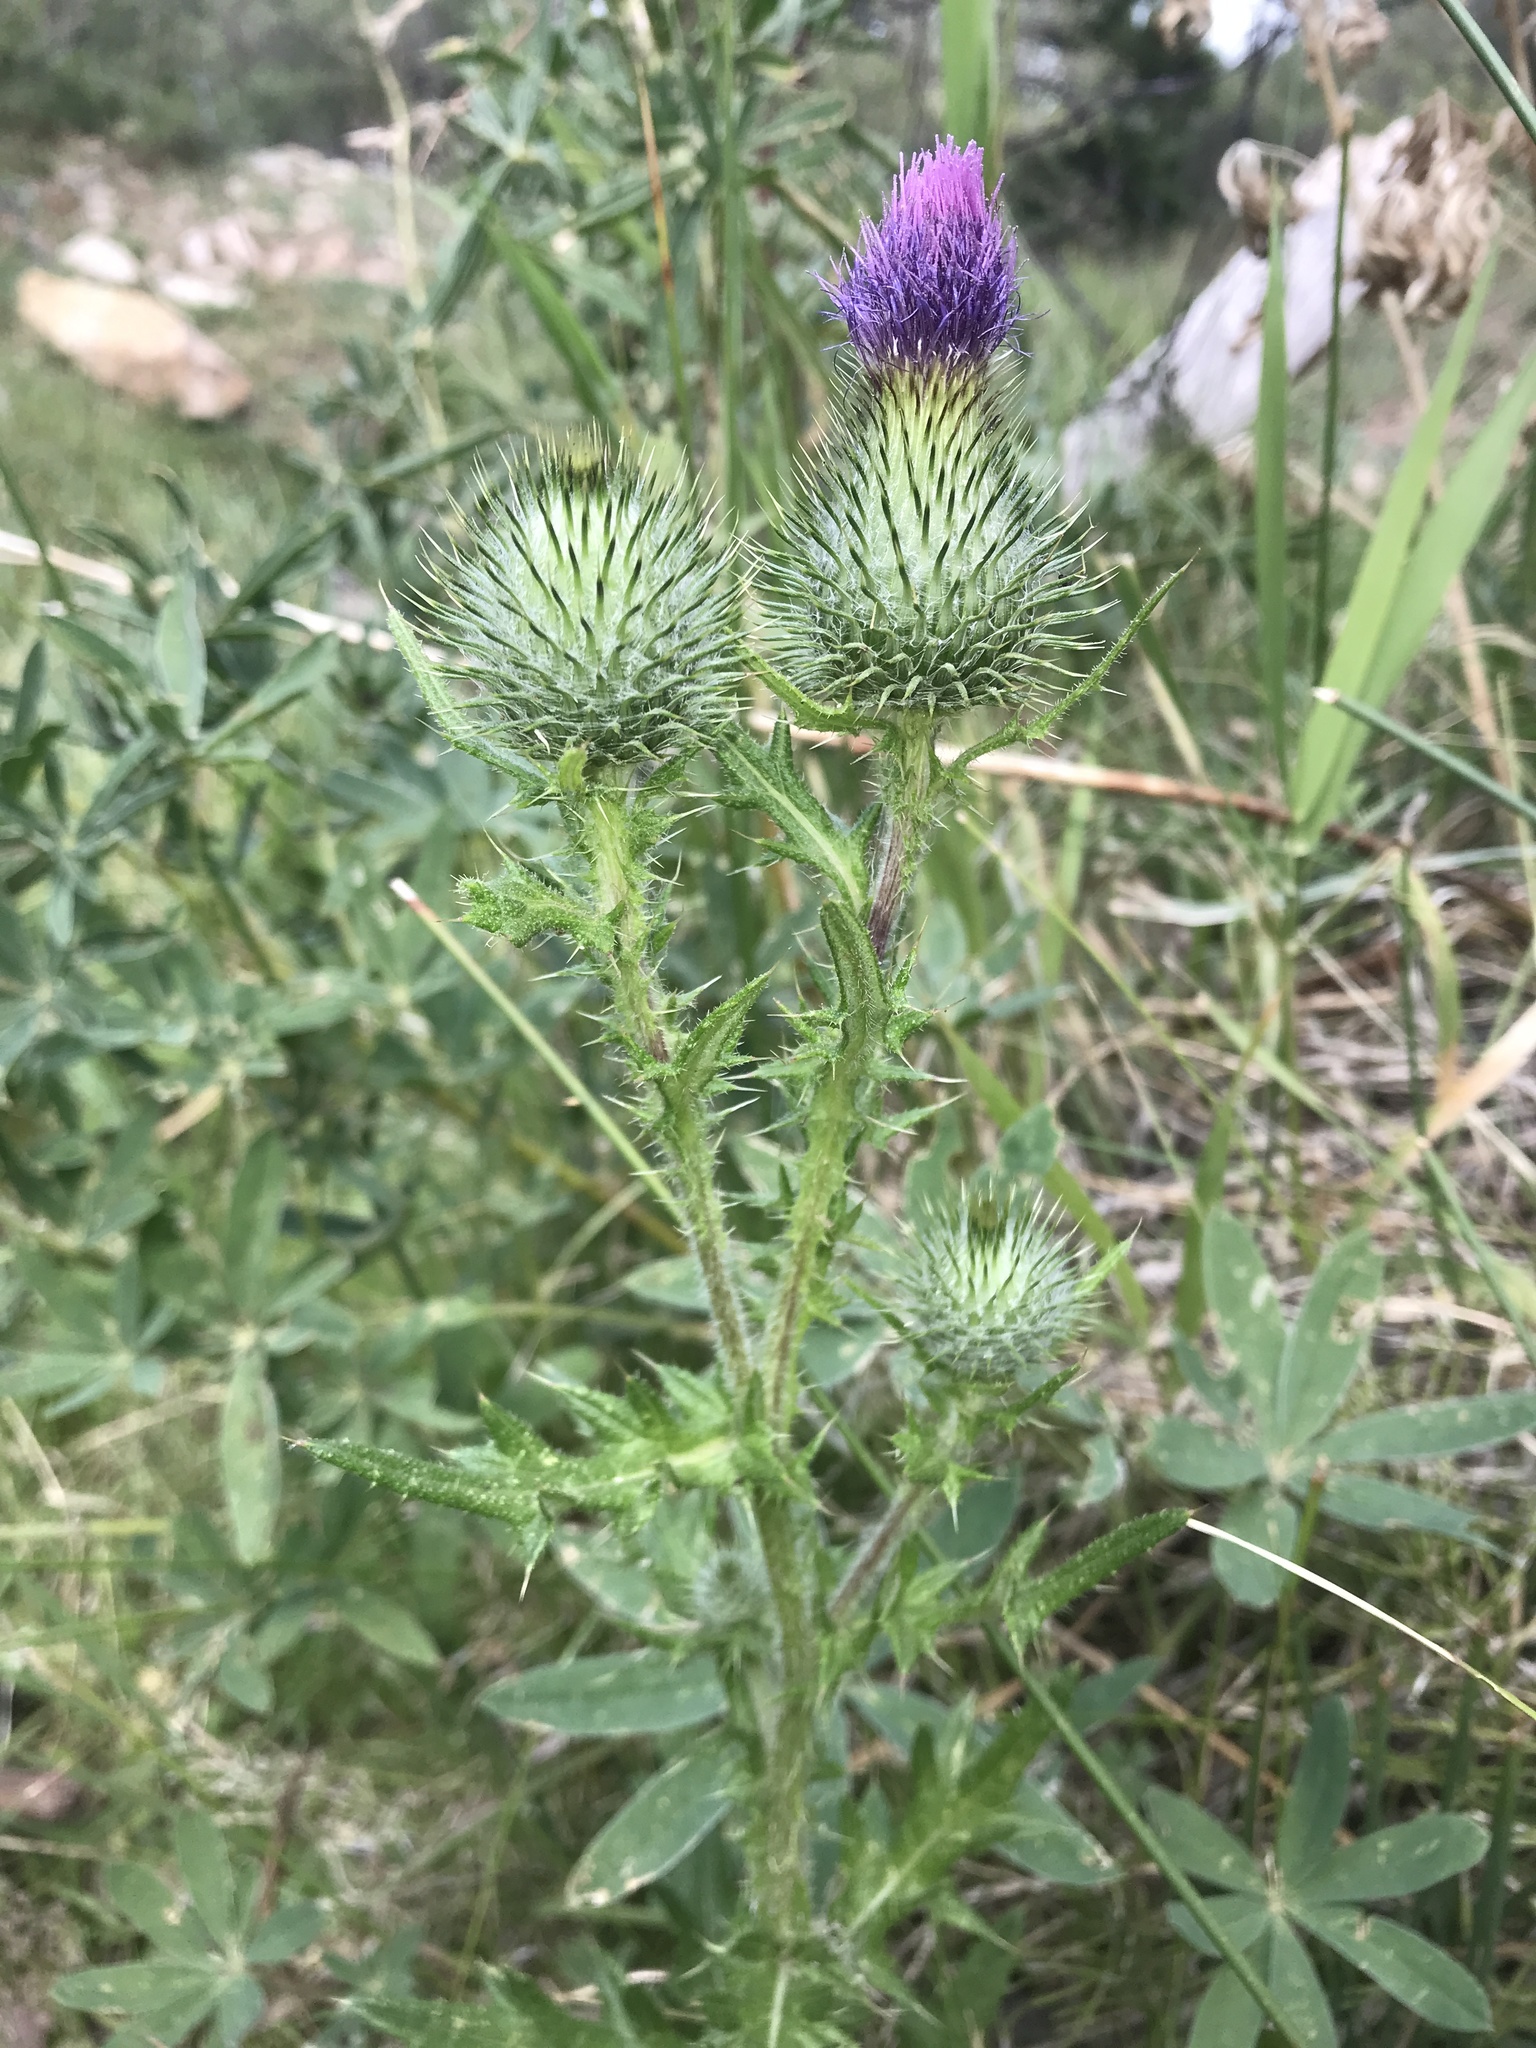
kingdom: Plantae
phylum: Tracheophyta
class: Magnoliopsida
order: Asterales
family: Asteraceae
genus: Cirsium
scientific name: Cirsium vulgare
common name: Bull thistle
